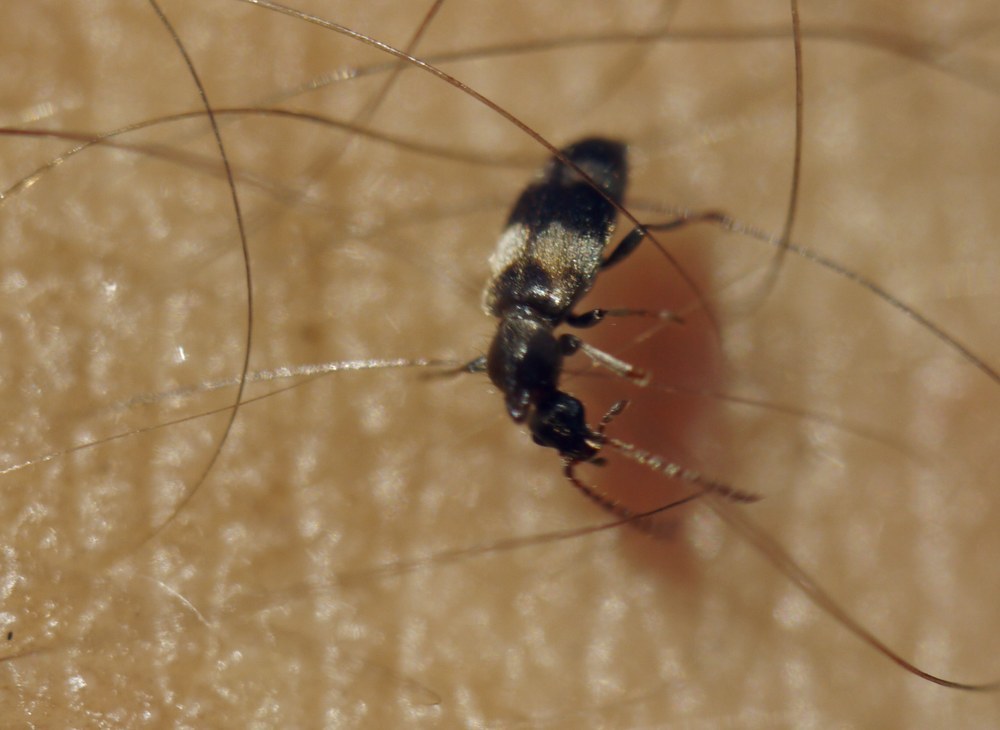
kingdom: Animalia
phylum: Arthropoda
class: Insecta
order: Coleoptera
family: Anthicidae
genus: Notoxus
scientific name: Notoxus trifasciatus
